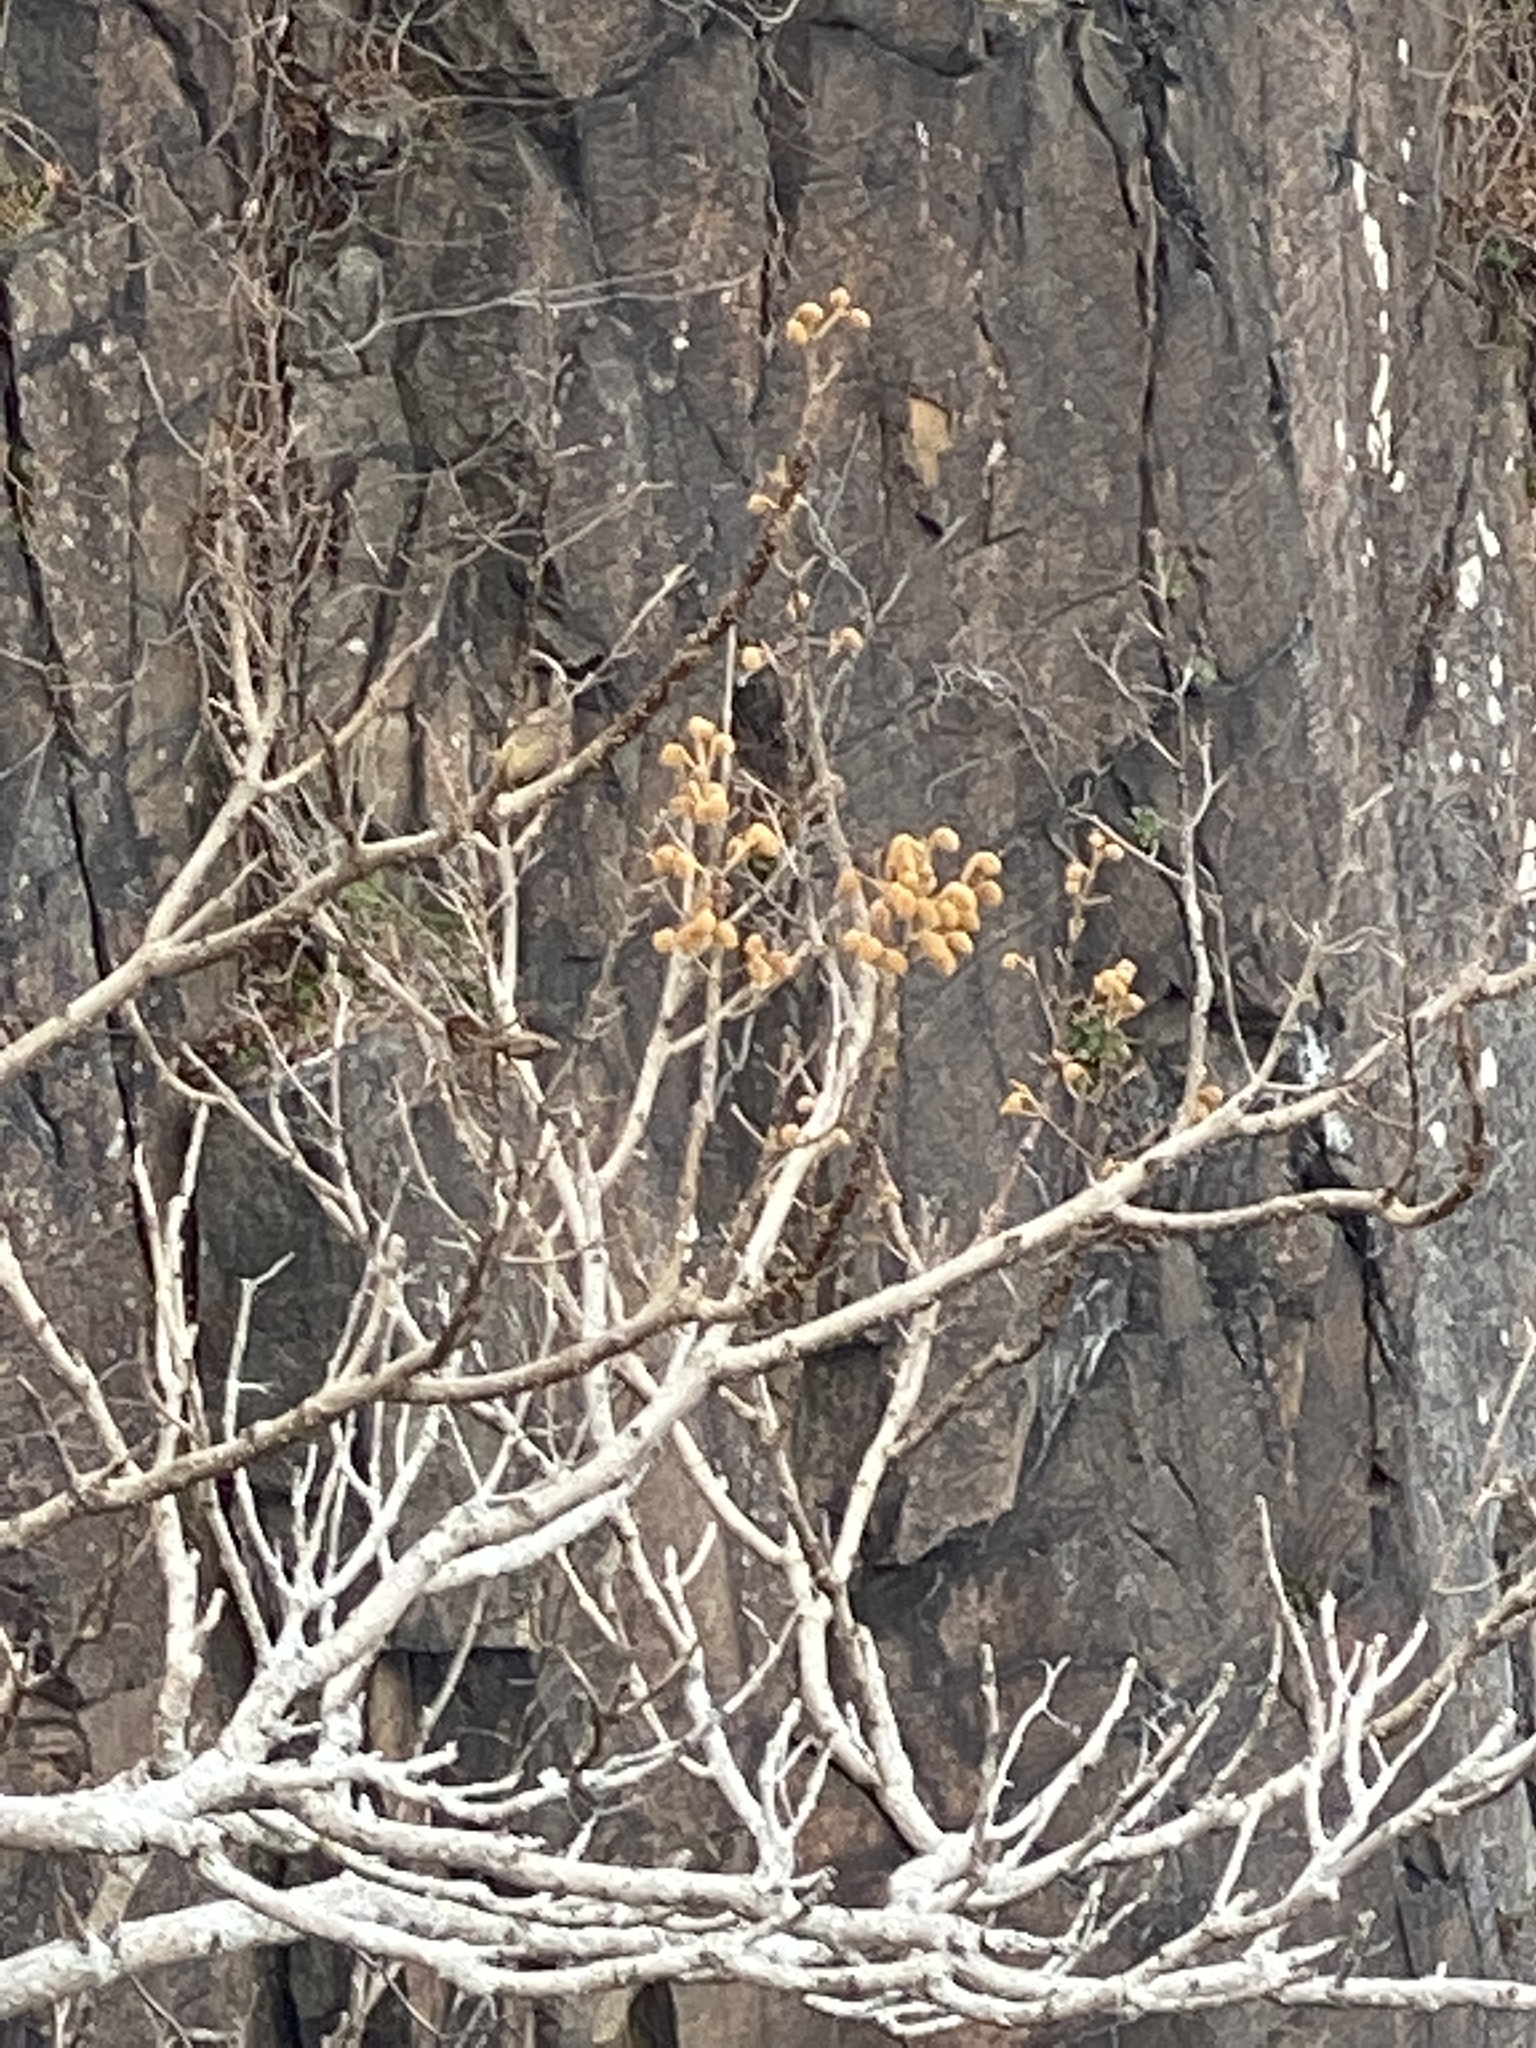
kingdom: Plantae
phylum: Tracheophyta
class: Magnoliopsida
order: Lamiales
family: Paulowniaceae
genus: Paulownia
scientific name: Paulownia tomentosa
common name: Foxglove-tree
